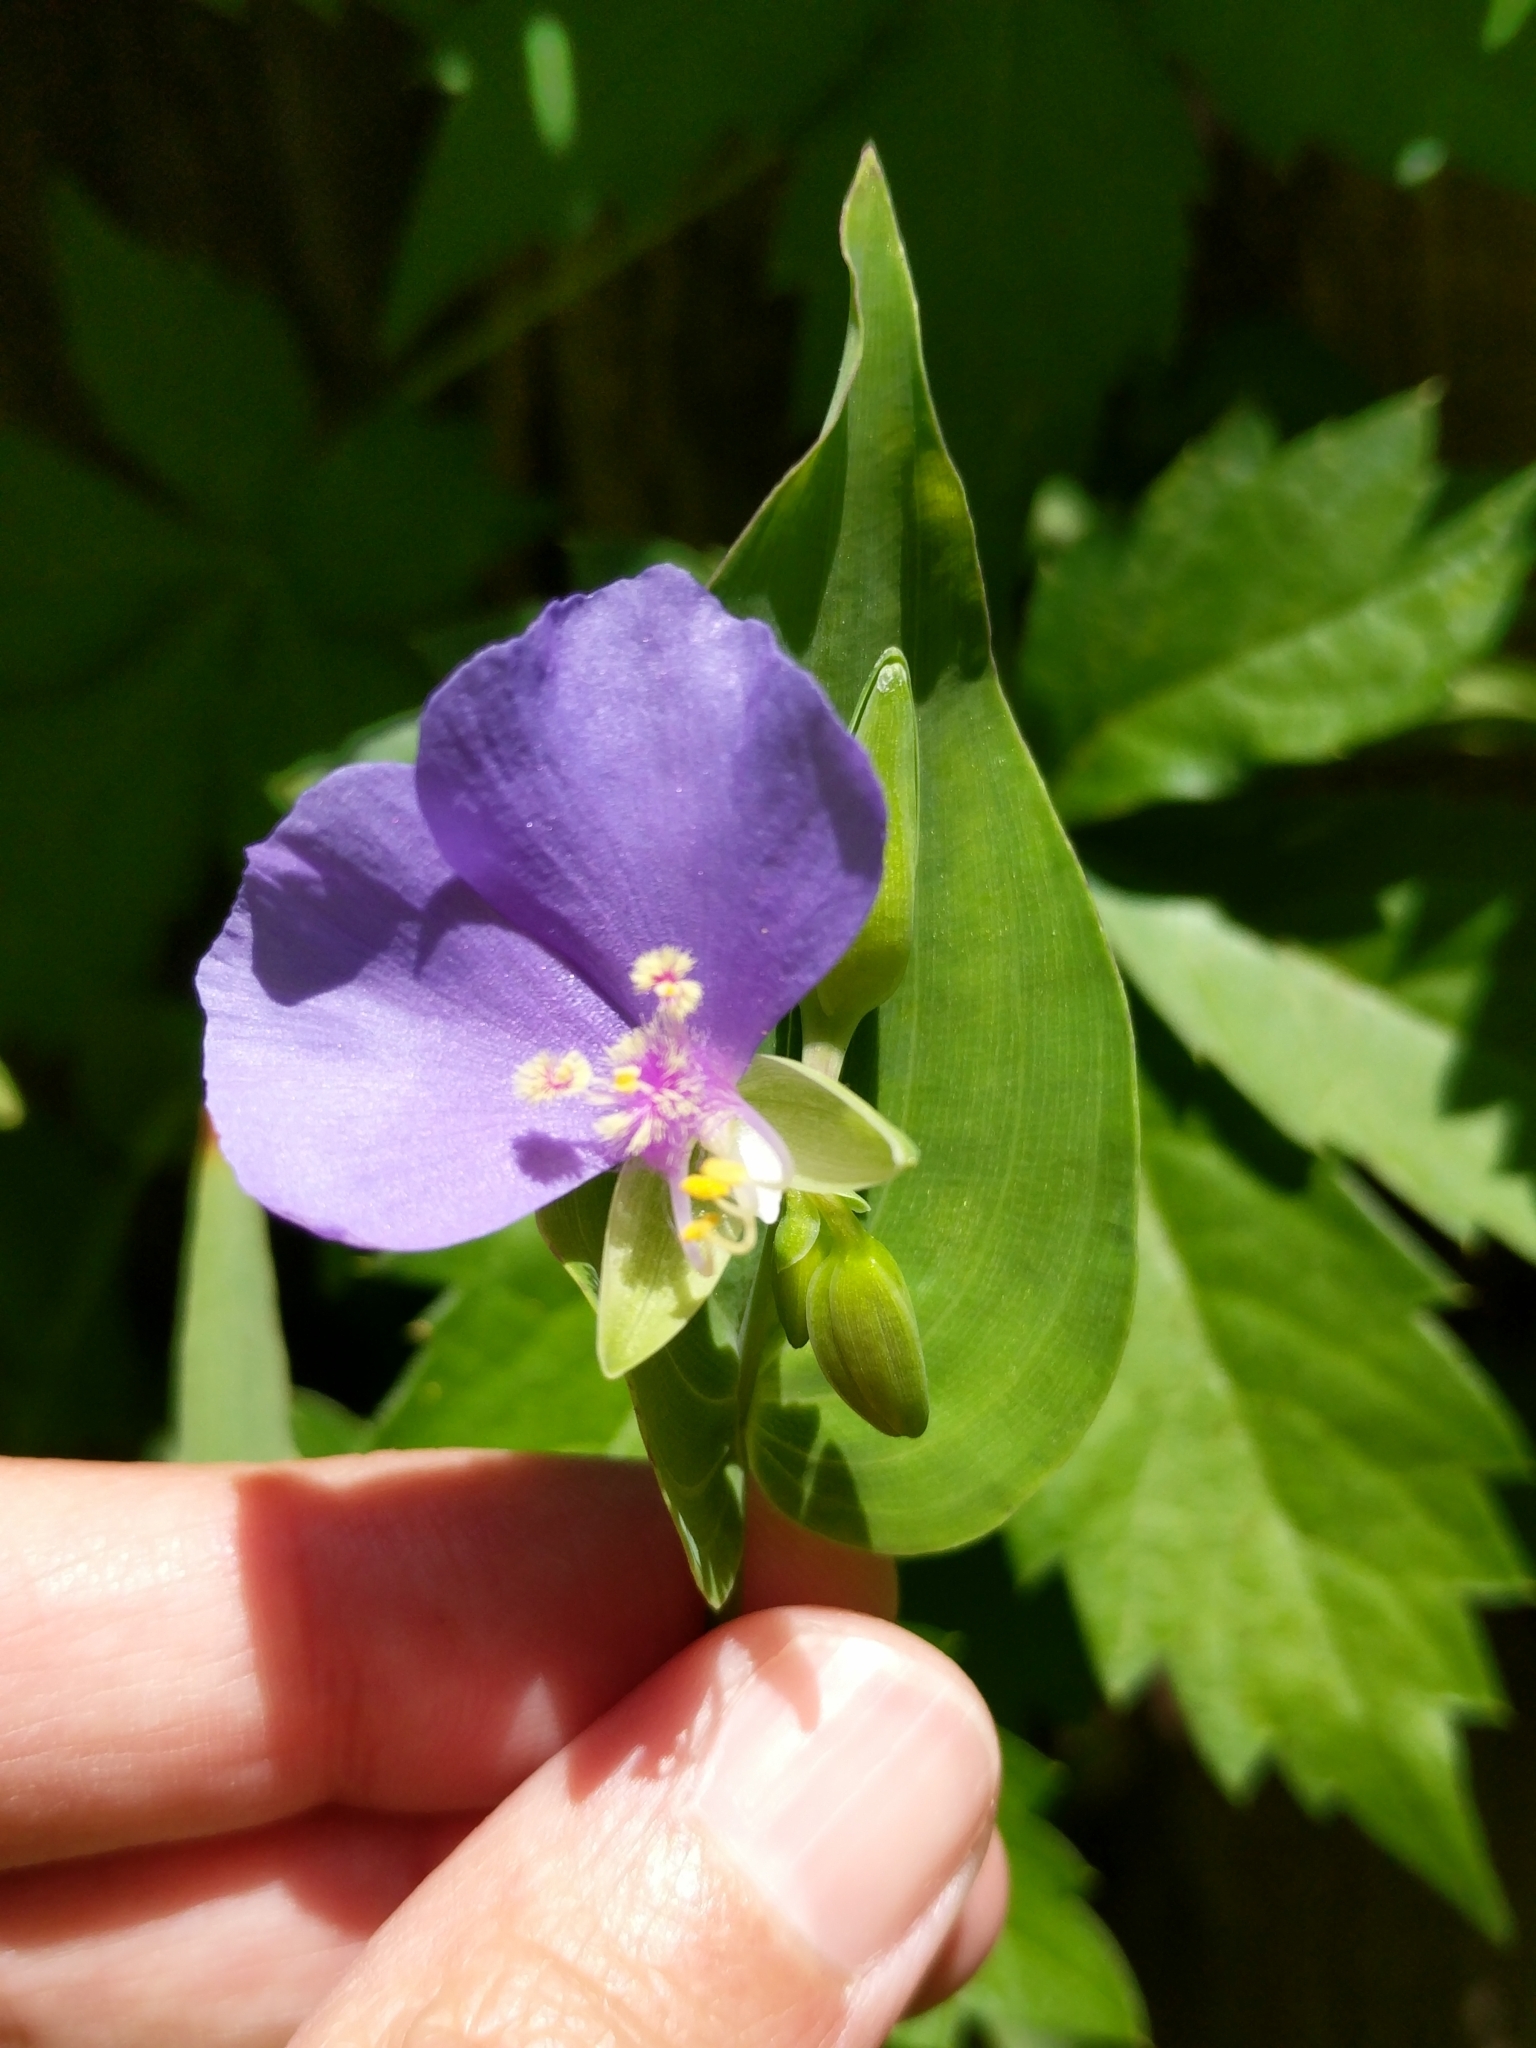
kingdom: Plantae
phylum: Tracheophyta
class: Liliopsida
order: Commelinales
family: Commelinaceae
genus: Tinantia
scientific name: Tinantia anomala
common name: False dayflower
